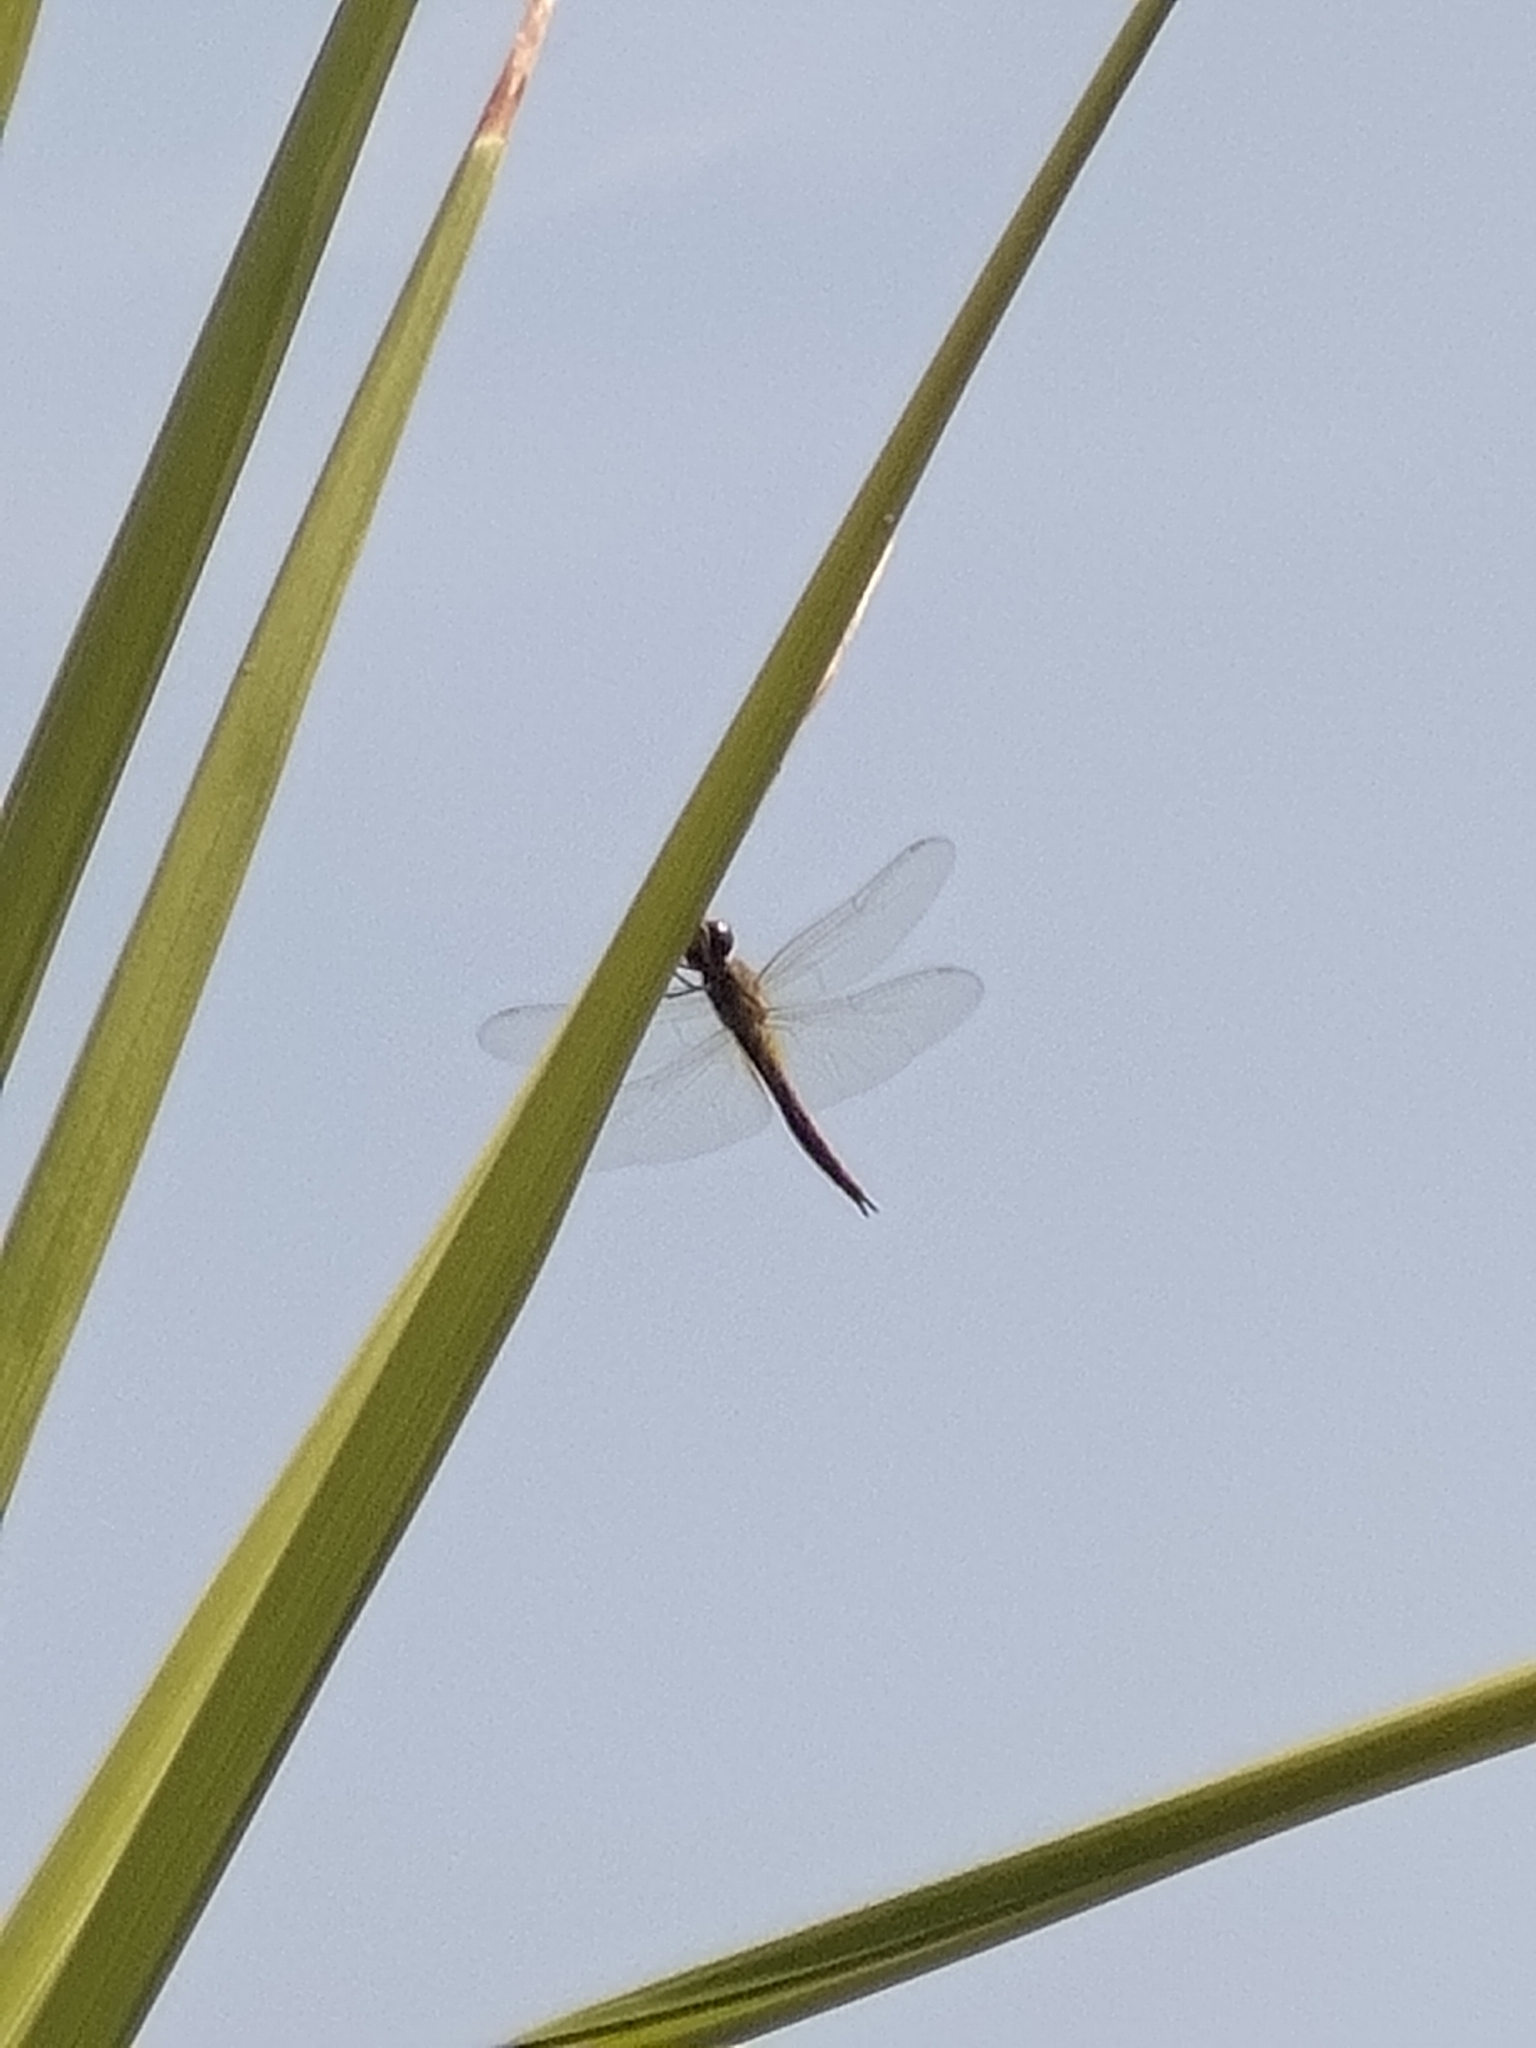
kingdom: Animalia
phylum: Arthropoda
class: Insecta
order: Odonata
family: Libellulidae
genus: Pantala
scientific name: Pantala flavescens
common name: Wandering glider
